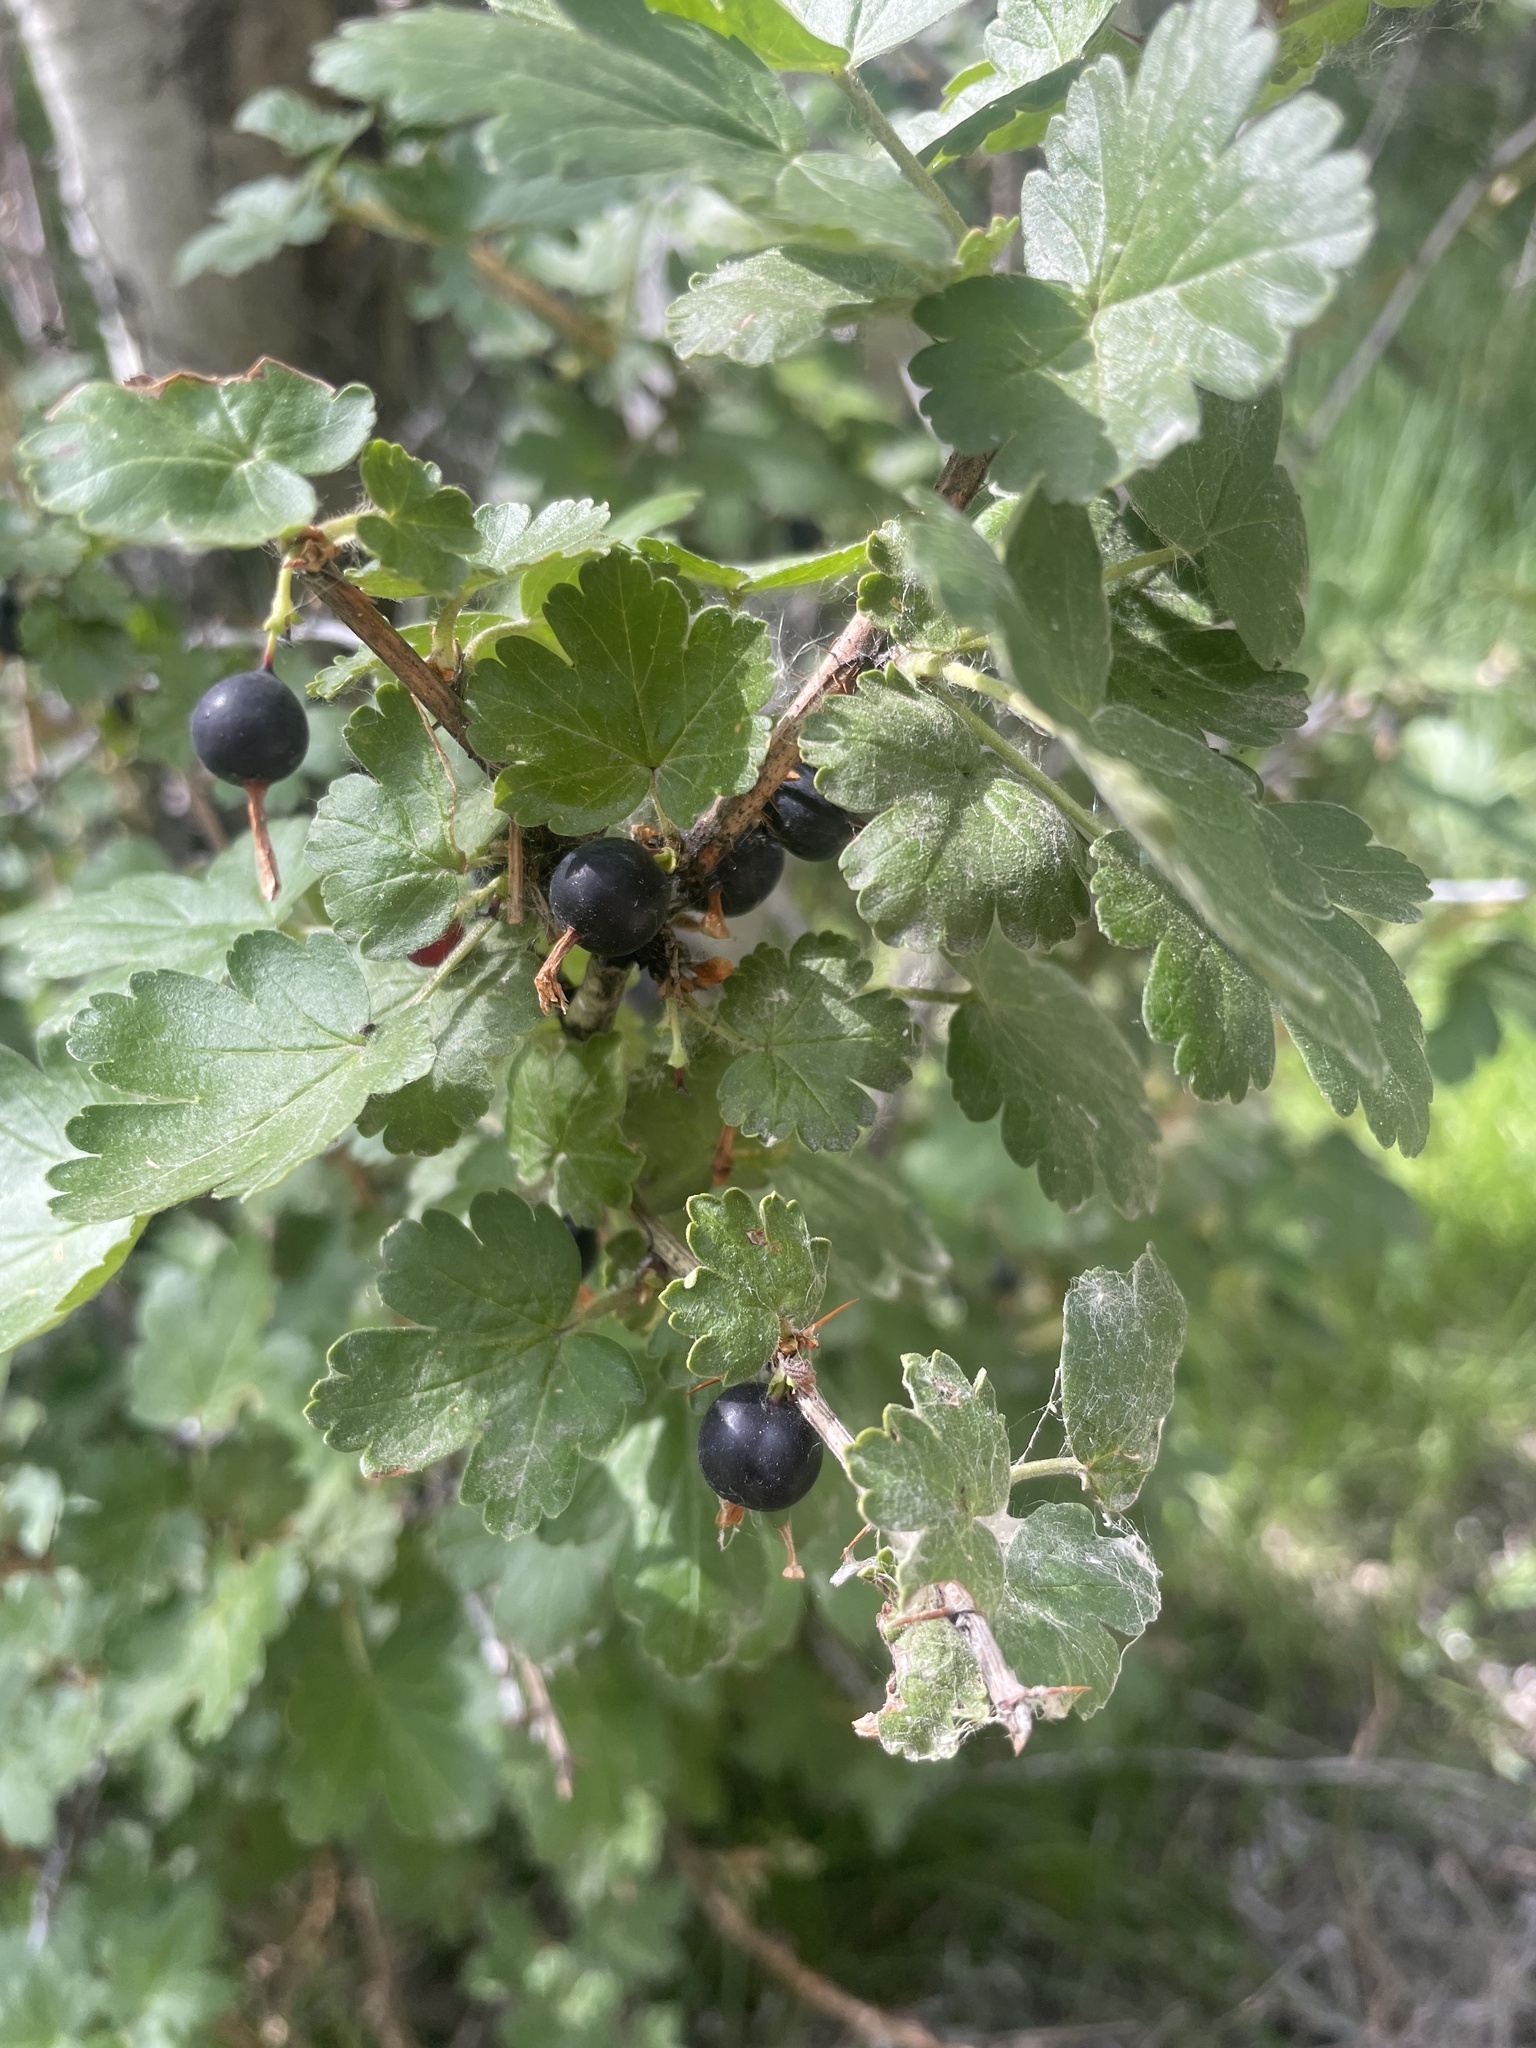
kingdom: Plantae
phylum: Tracheophyta
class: Magnoliopsida
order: Saxifragales
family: Grossulariaceae
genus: Ribes
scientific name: Ribes oxyacanthoides
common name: Northern gooseberry
